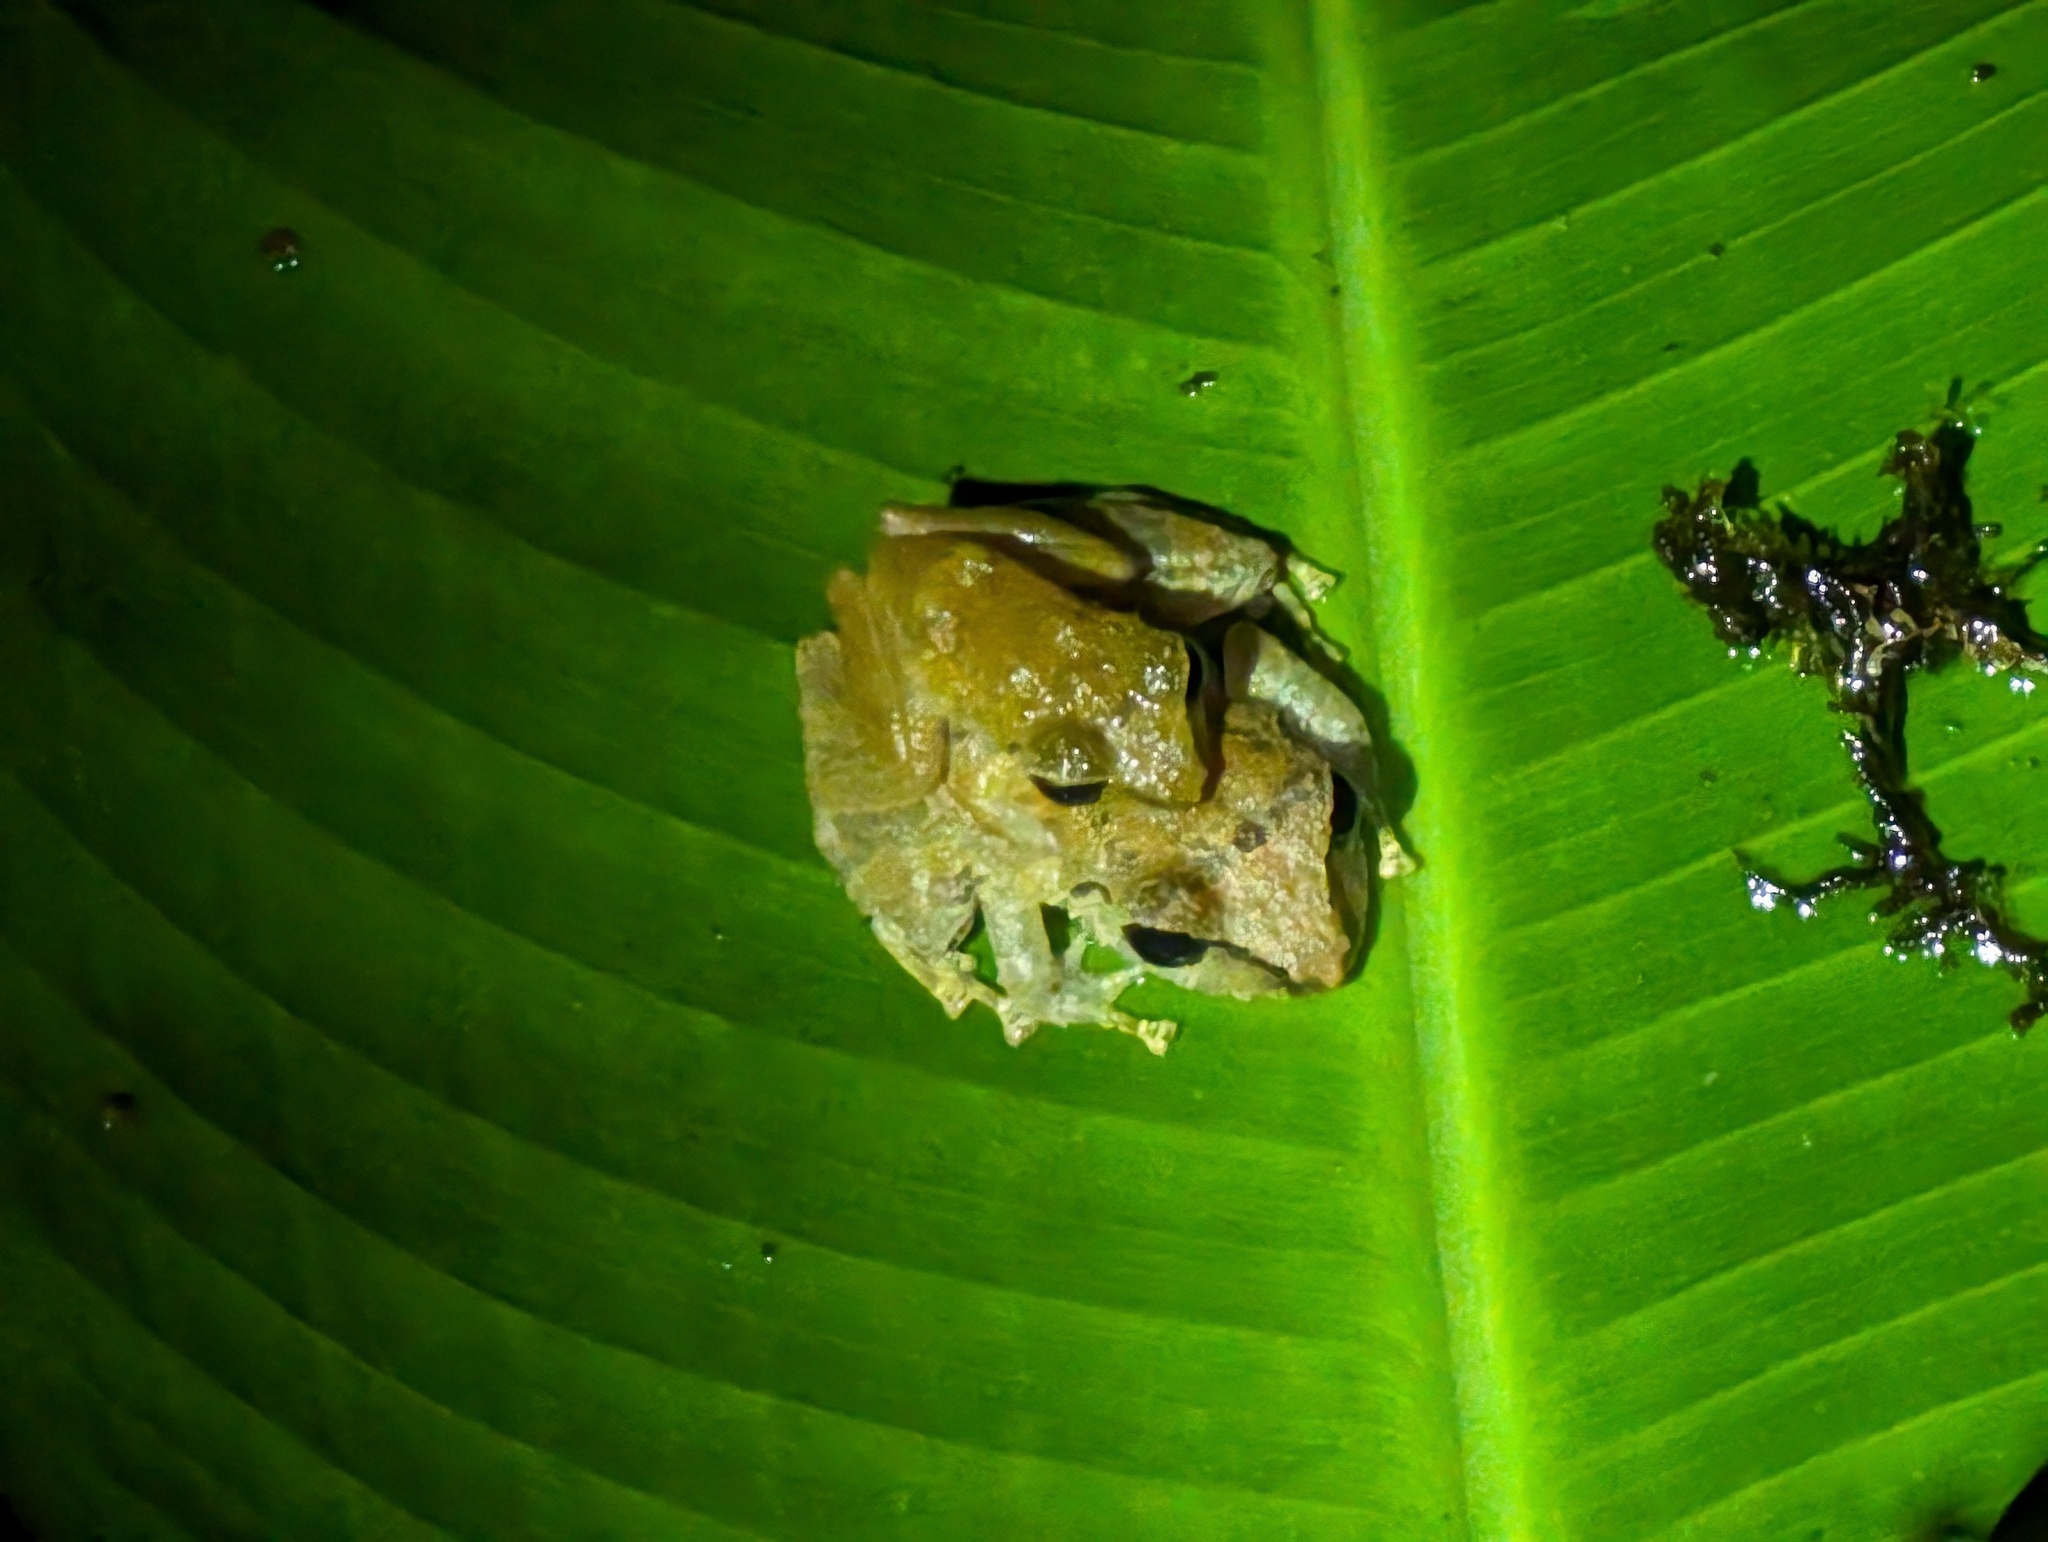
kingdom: Animalia
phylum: Chordata
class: Amphibia
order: Anura
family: Craugastoridae
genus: Pristimantis
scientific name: Pristimantis ridens
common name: Rio san juan robber frog
